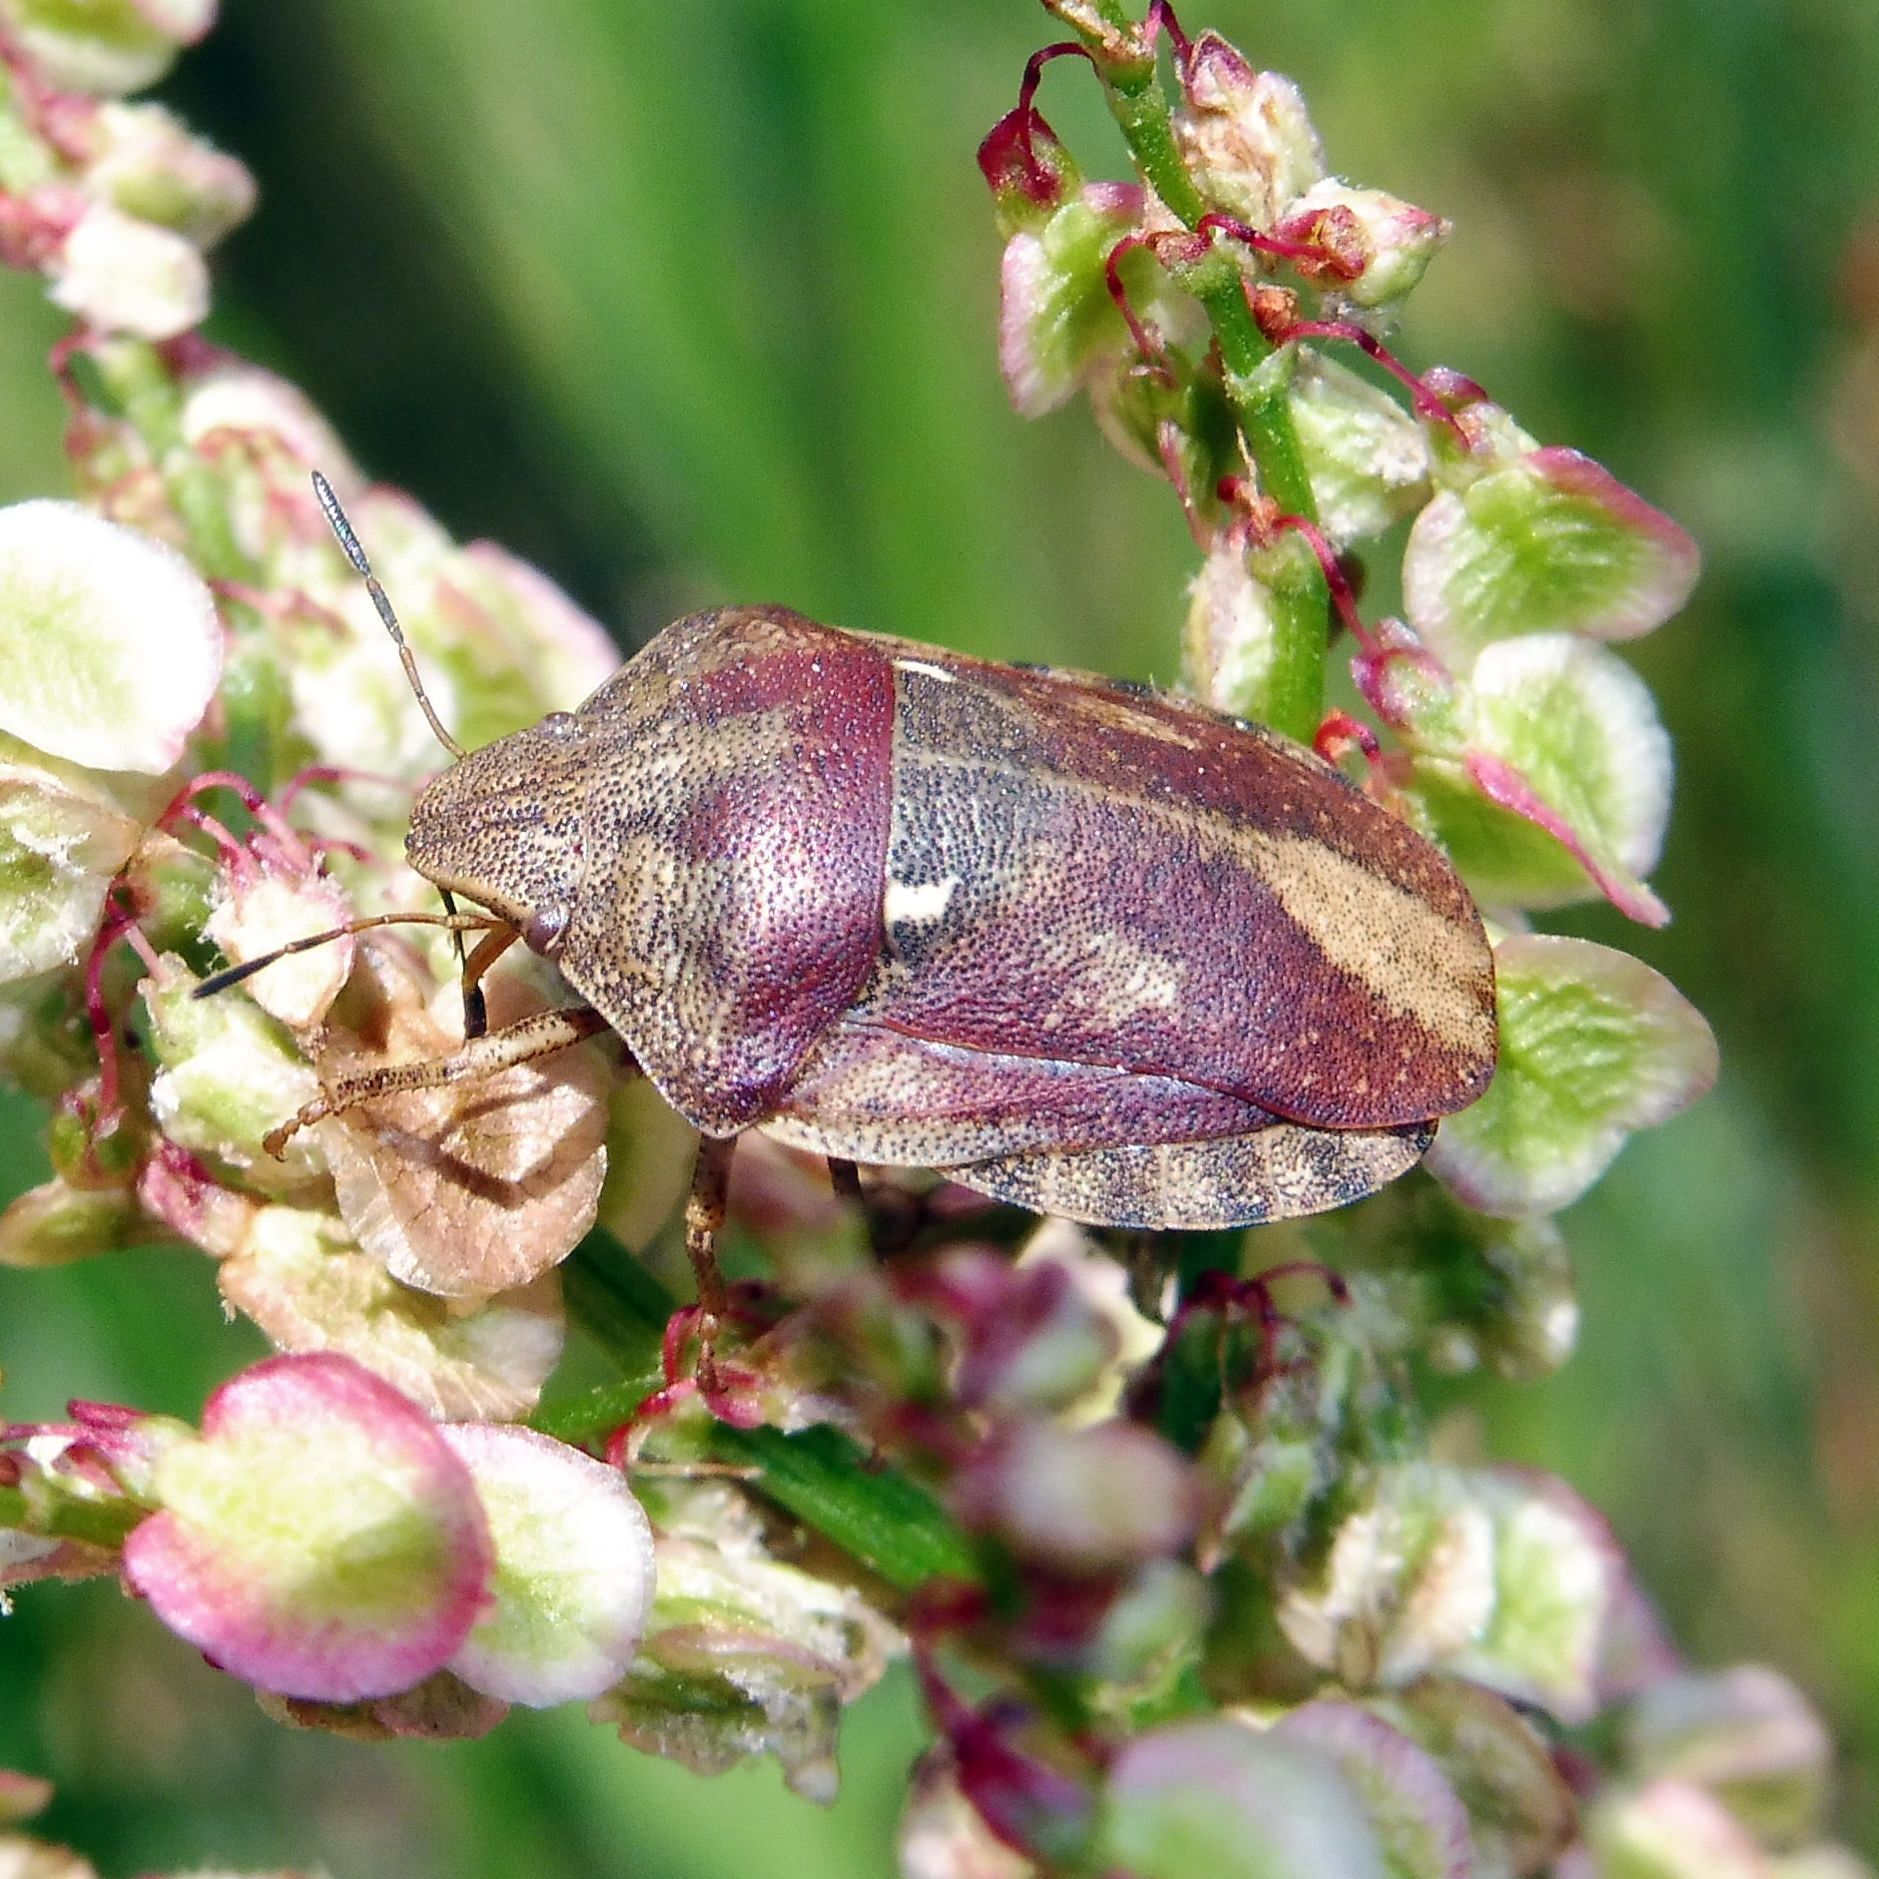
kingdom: Animalia
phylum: Arthropoda
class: Insecta
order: Hemiptera
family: Scutelleridae
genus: Eurygaster
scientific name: Eurygaster testudinaria
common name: Tortoise bug
